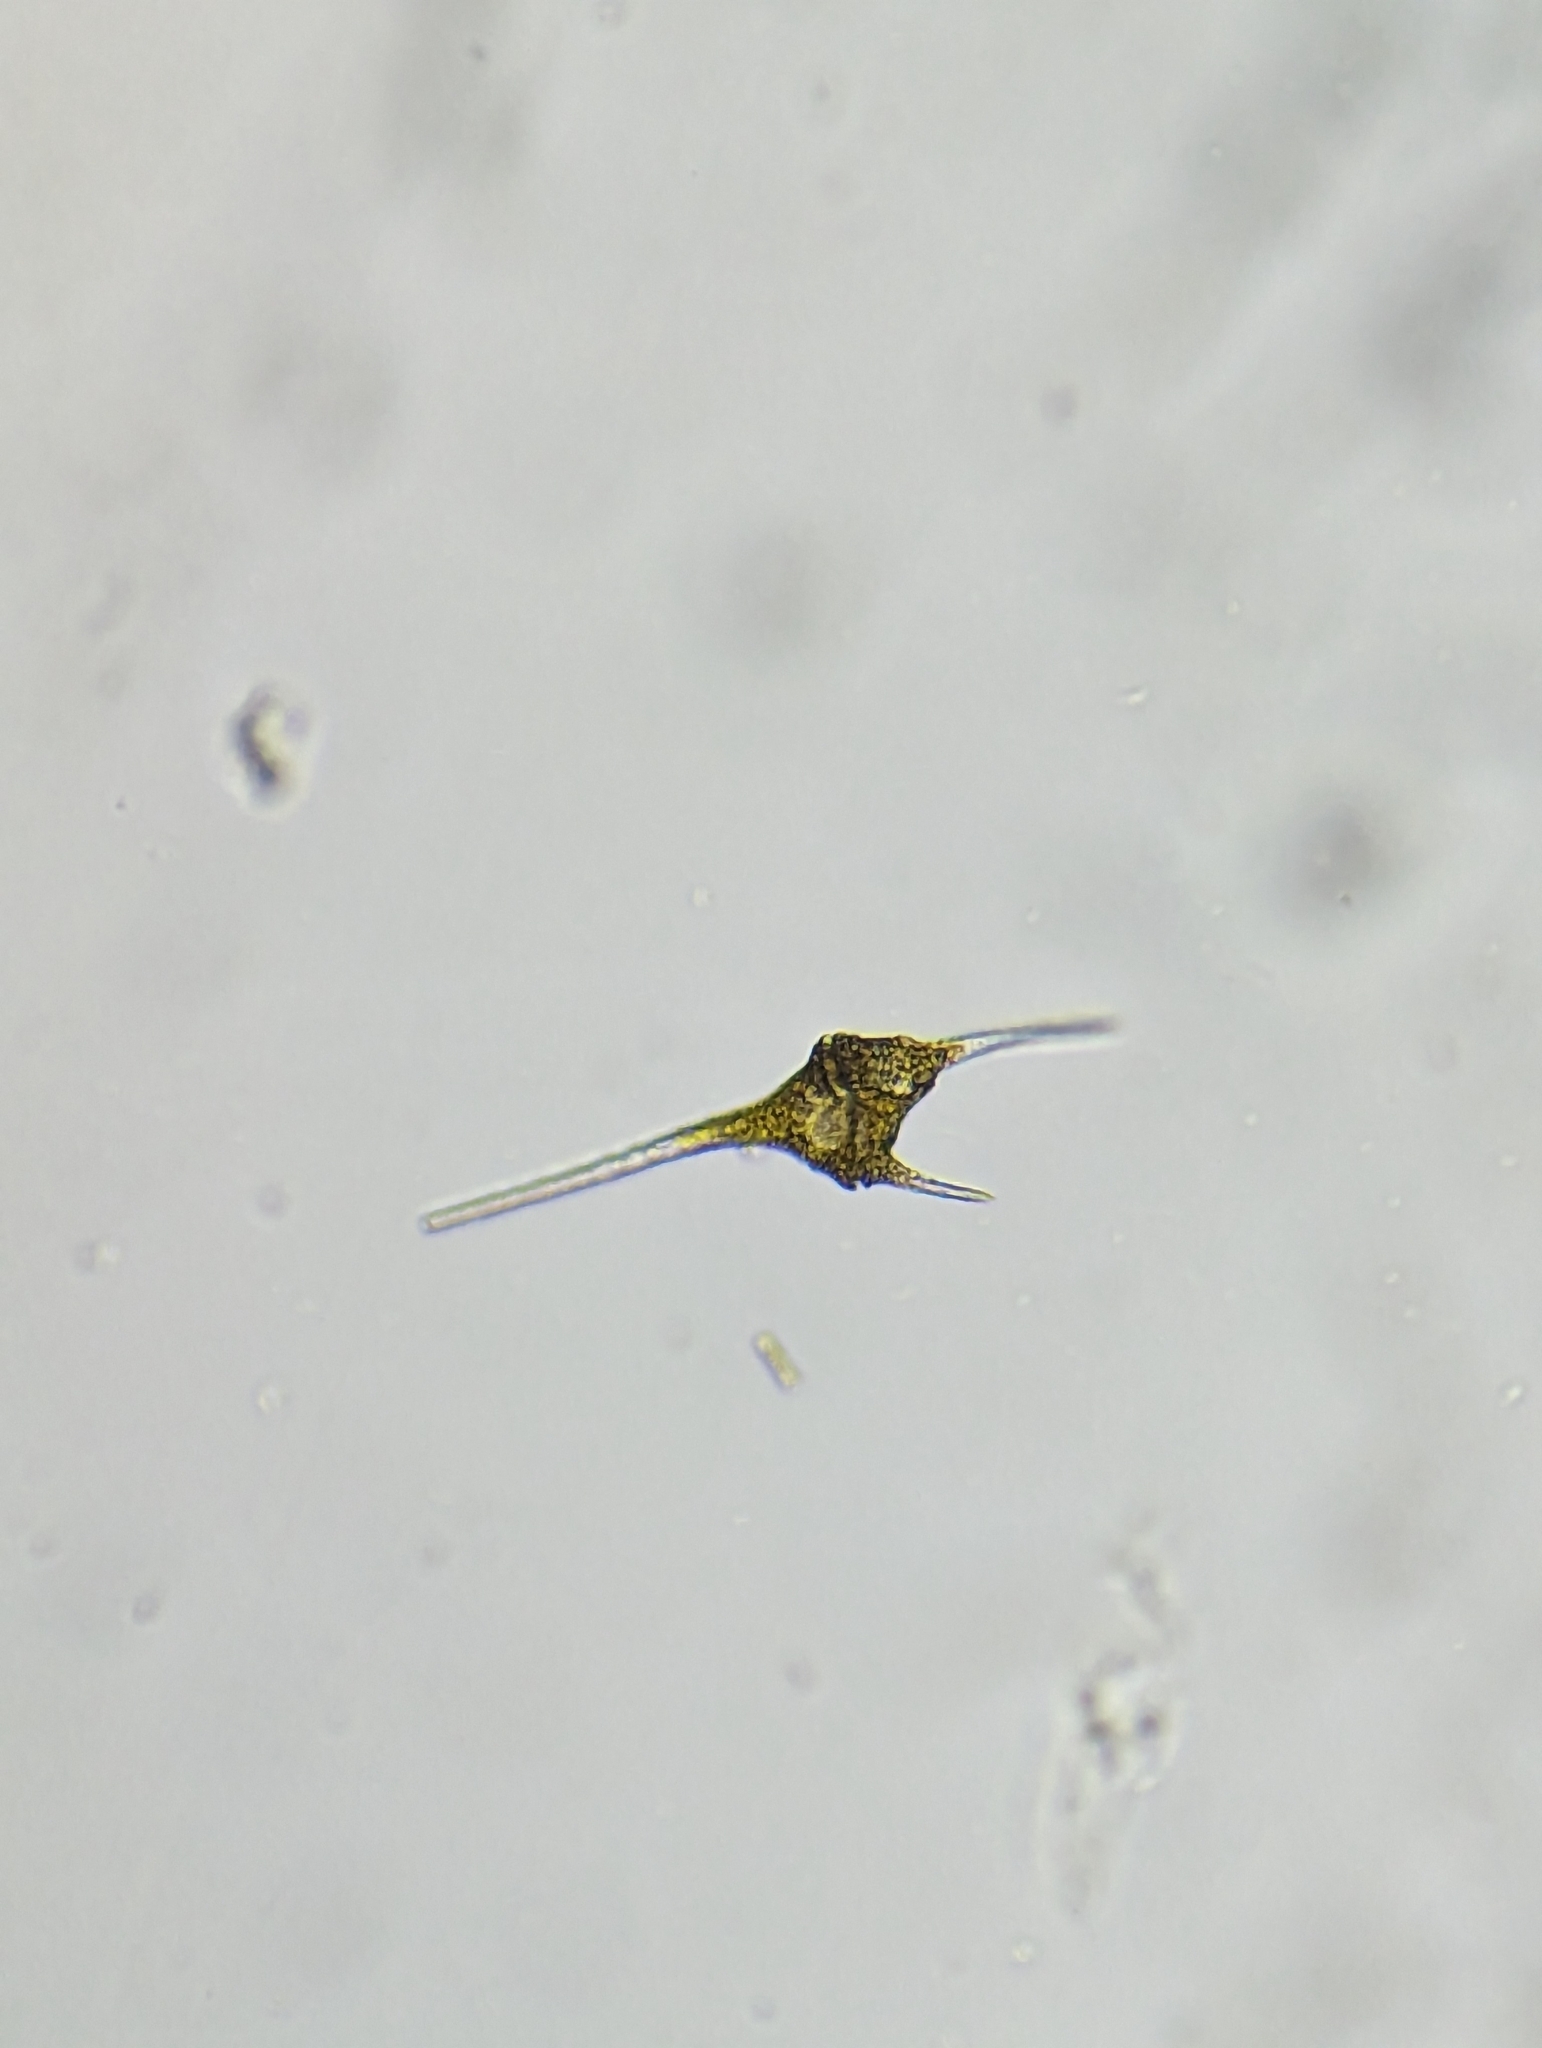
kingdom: Chromista
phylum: Myzozoa
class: Dinophyceae
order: Gonyaulacales
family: Ceratiaceae
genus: Ceratium
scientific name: Ceratium hirundinella
